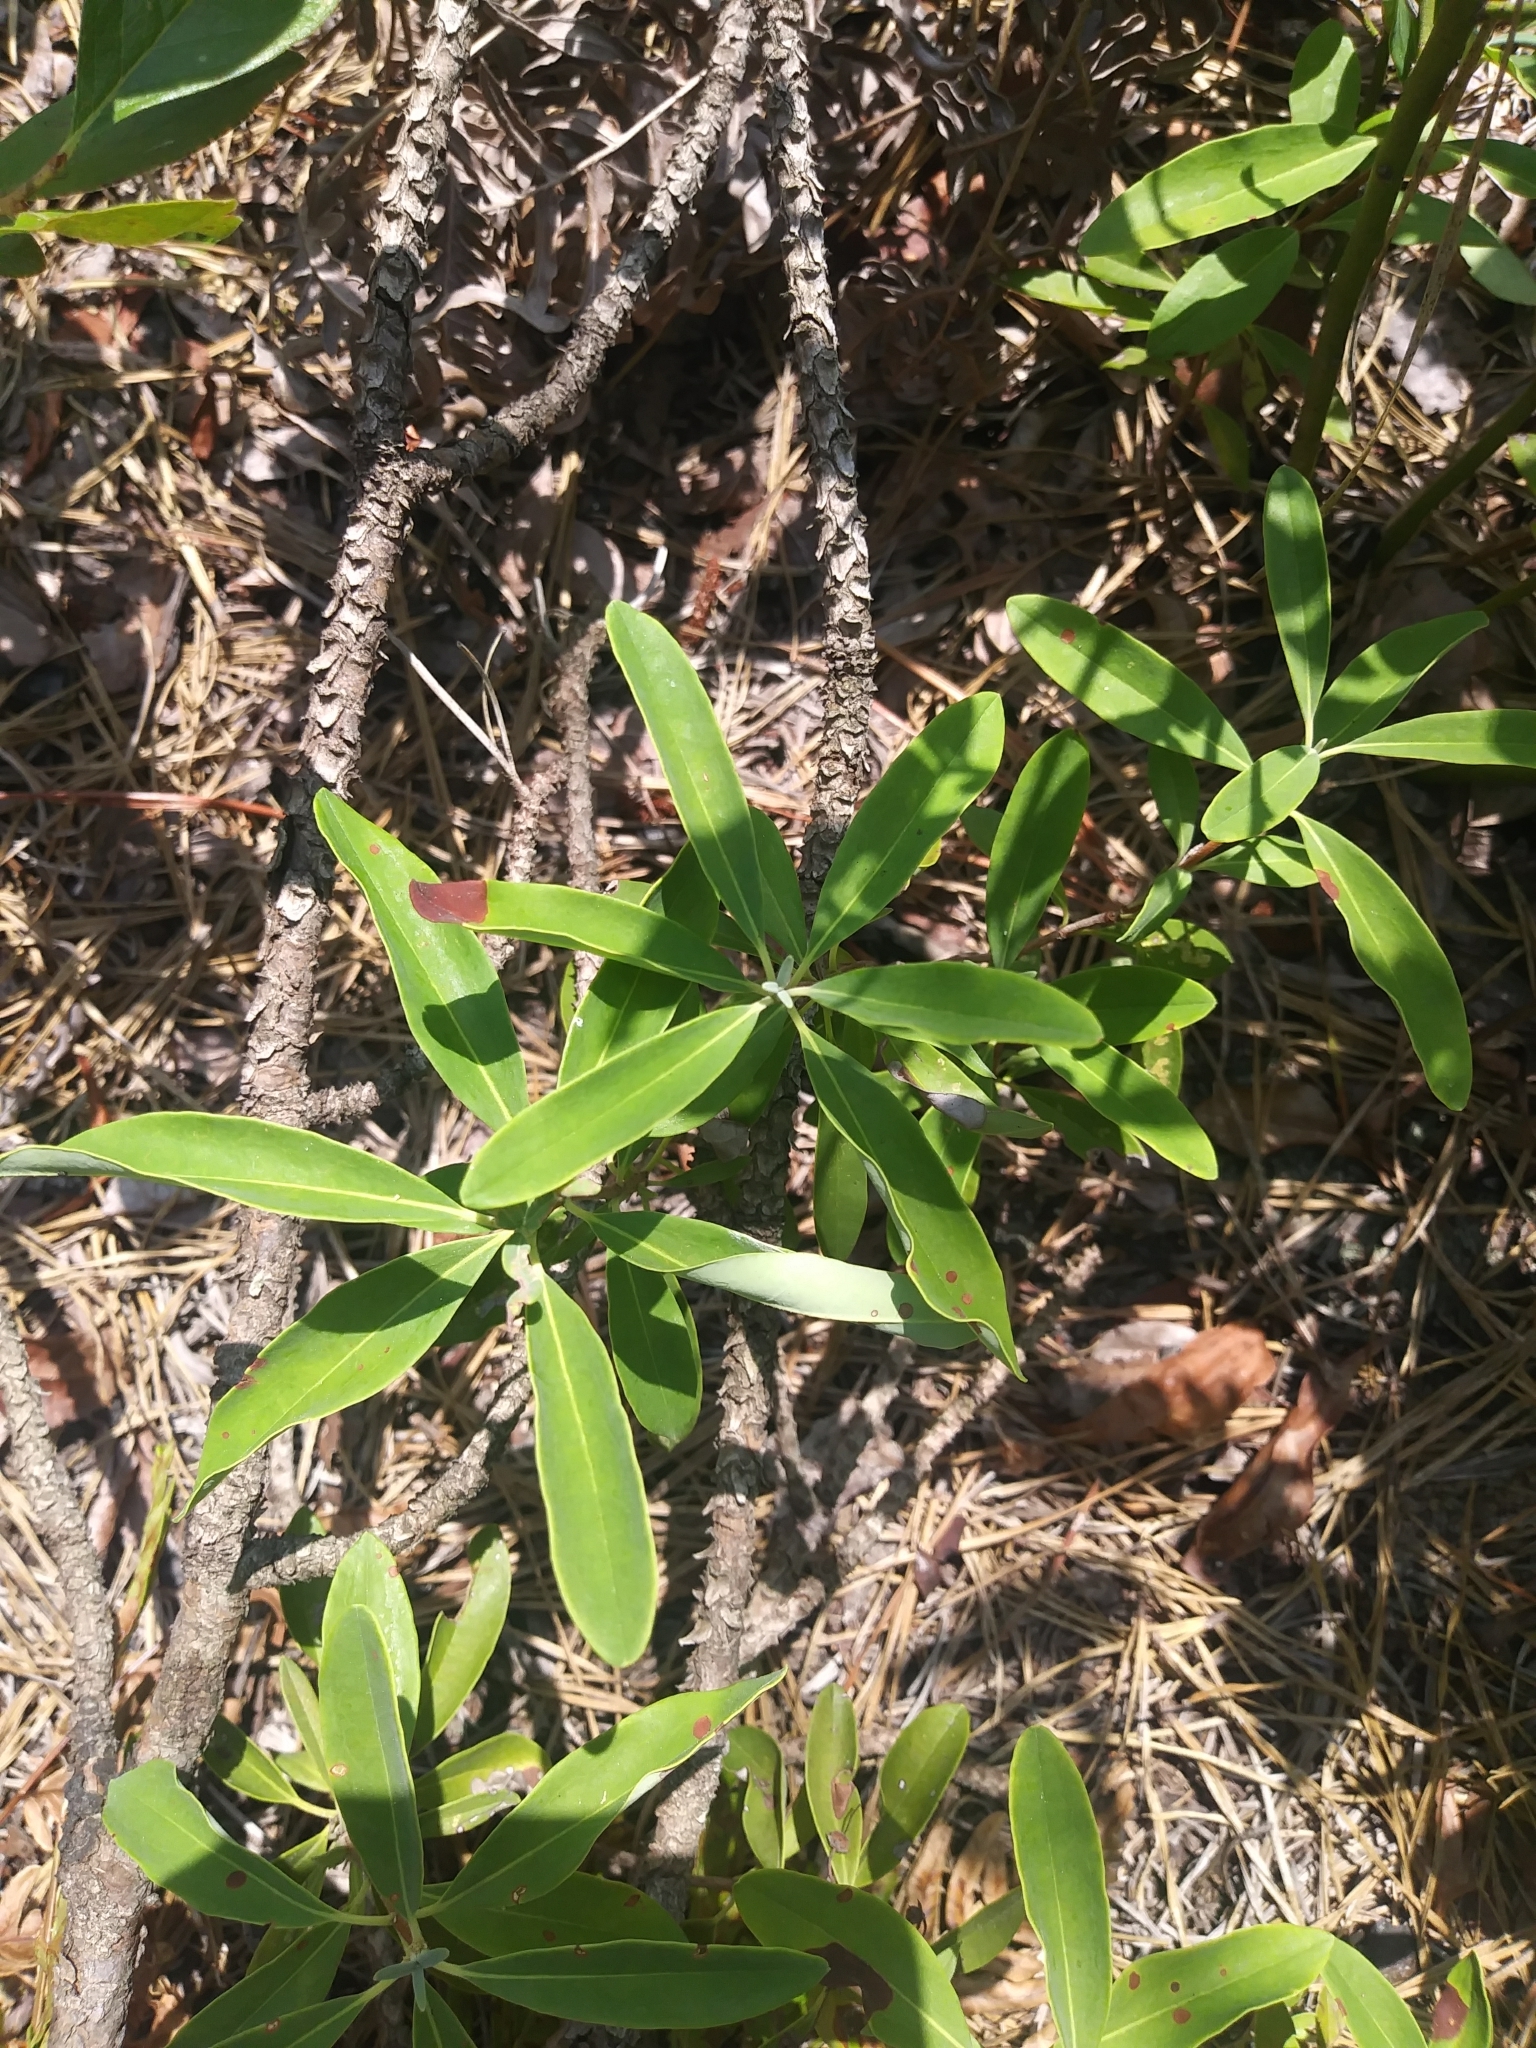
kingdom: Plantae
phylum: Tracheophyta
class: Magnoliopsida
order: Ericales
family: Ericaceae
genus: Kalmia
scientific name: Kalmia angustifolia
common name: Sheep-laurel
